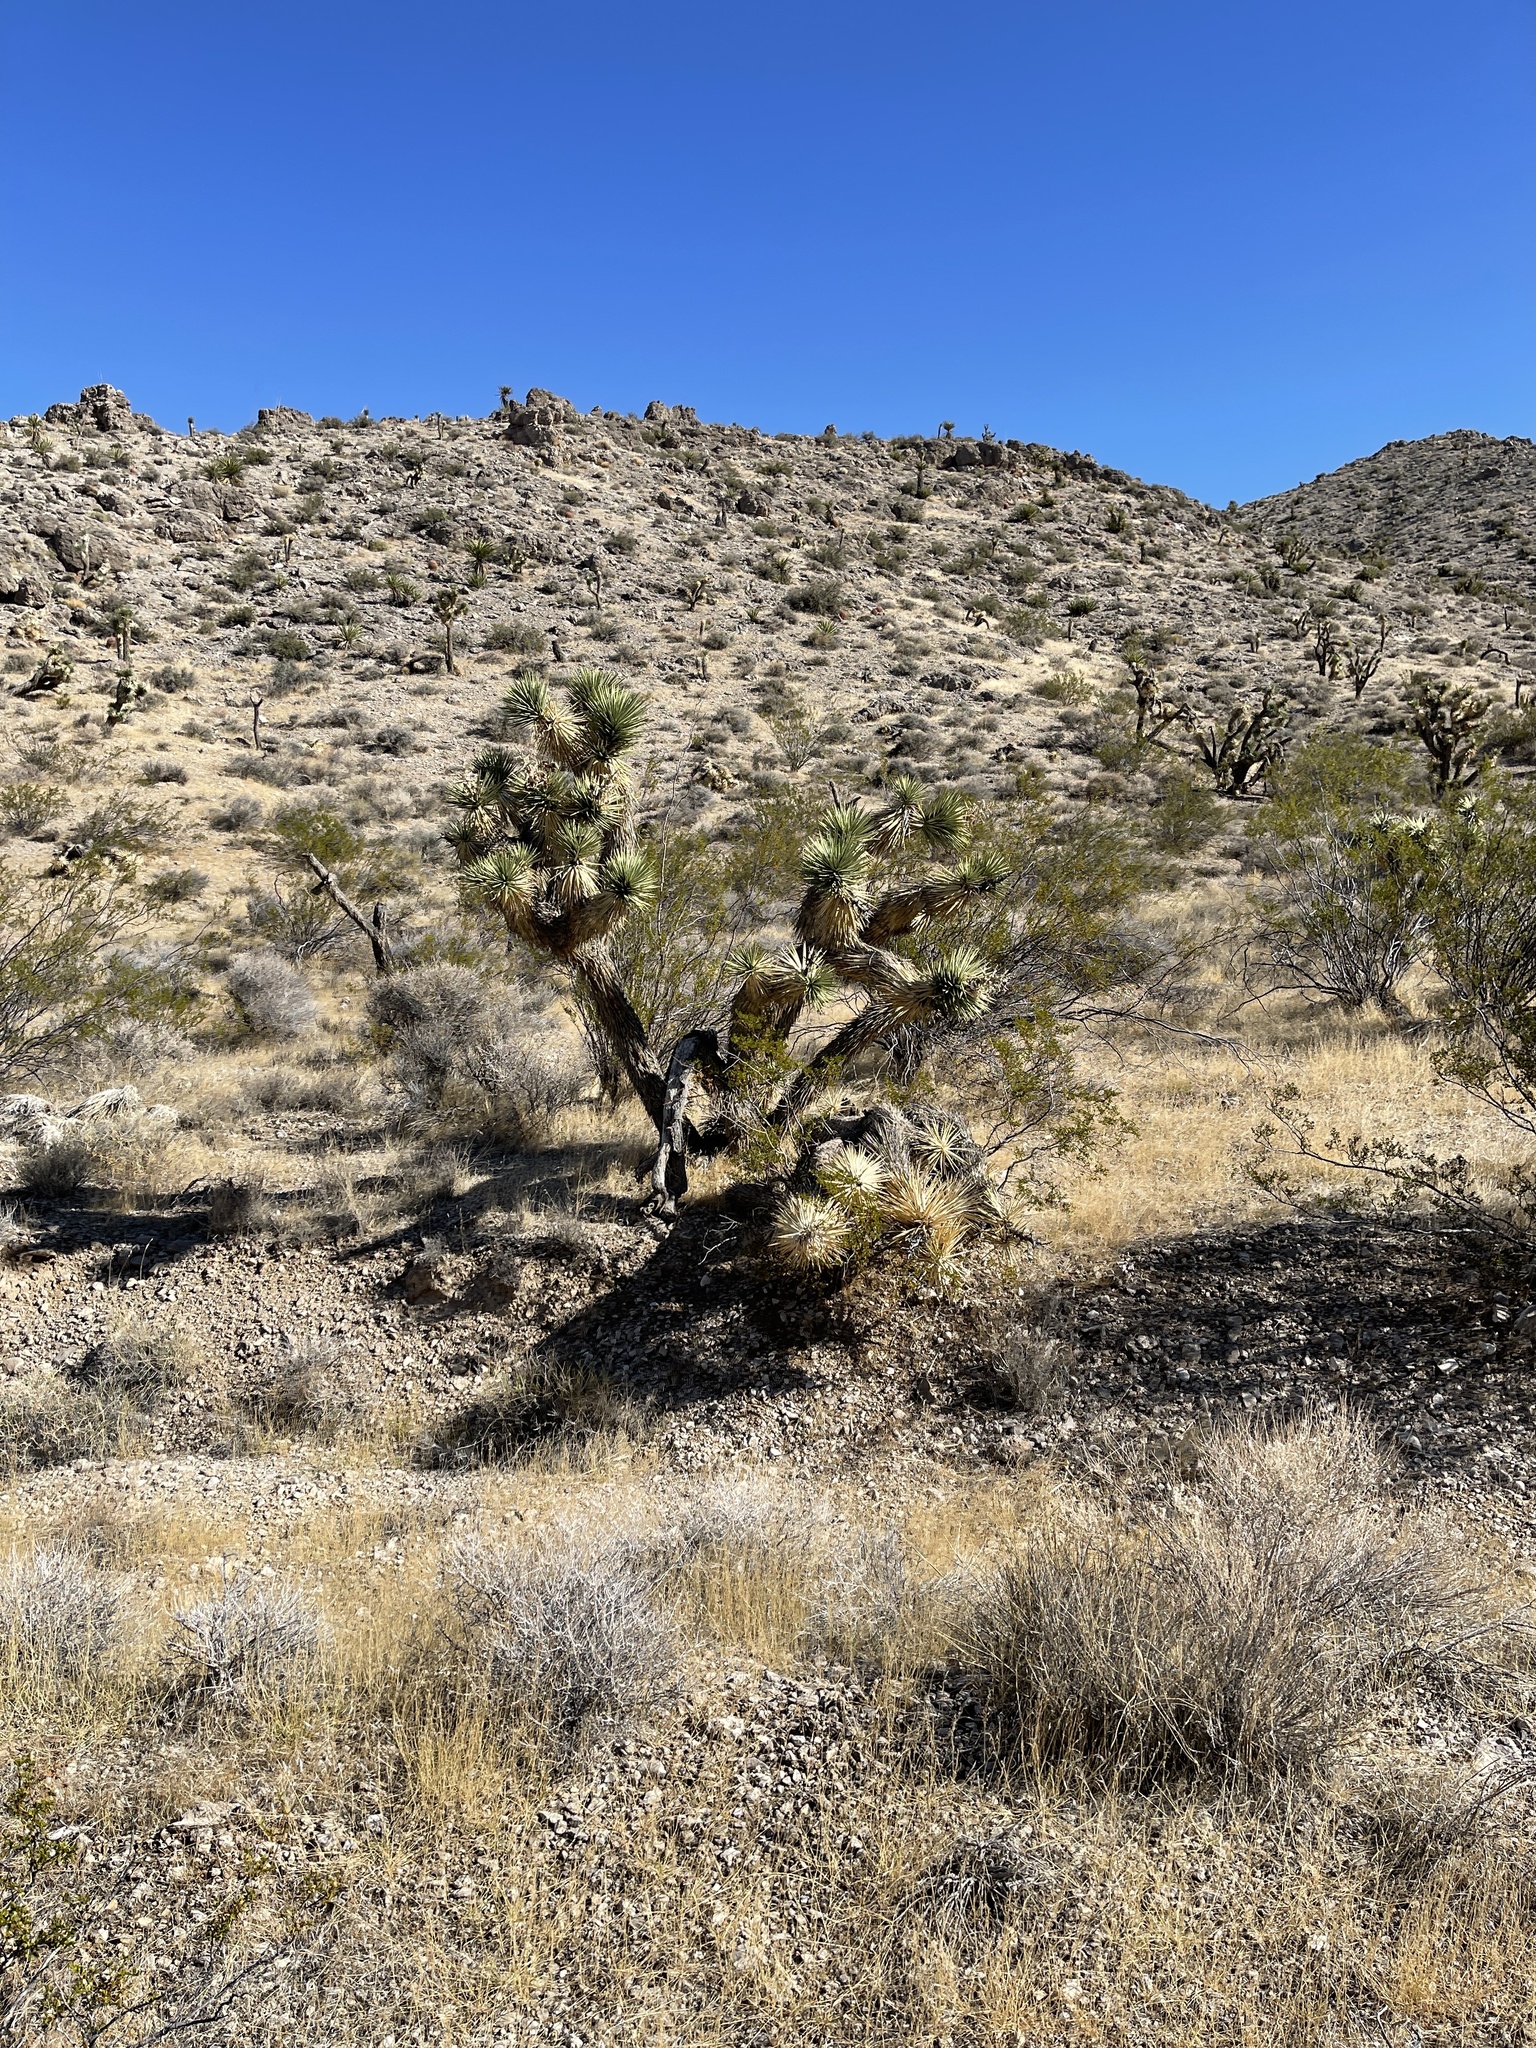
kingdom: Plantae
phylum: Tracheophyta
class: Liliopsida
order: Asparagales
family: Asparagaceae
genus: Yucca
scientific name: Yucca brevifolia
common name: Joshua tree
